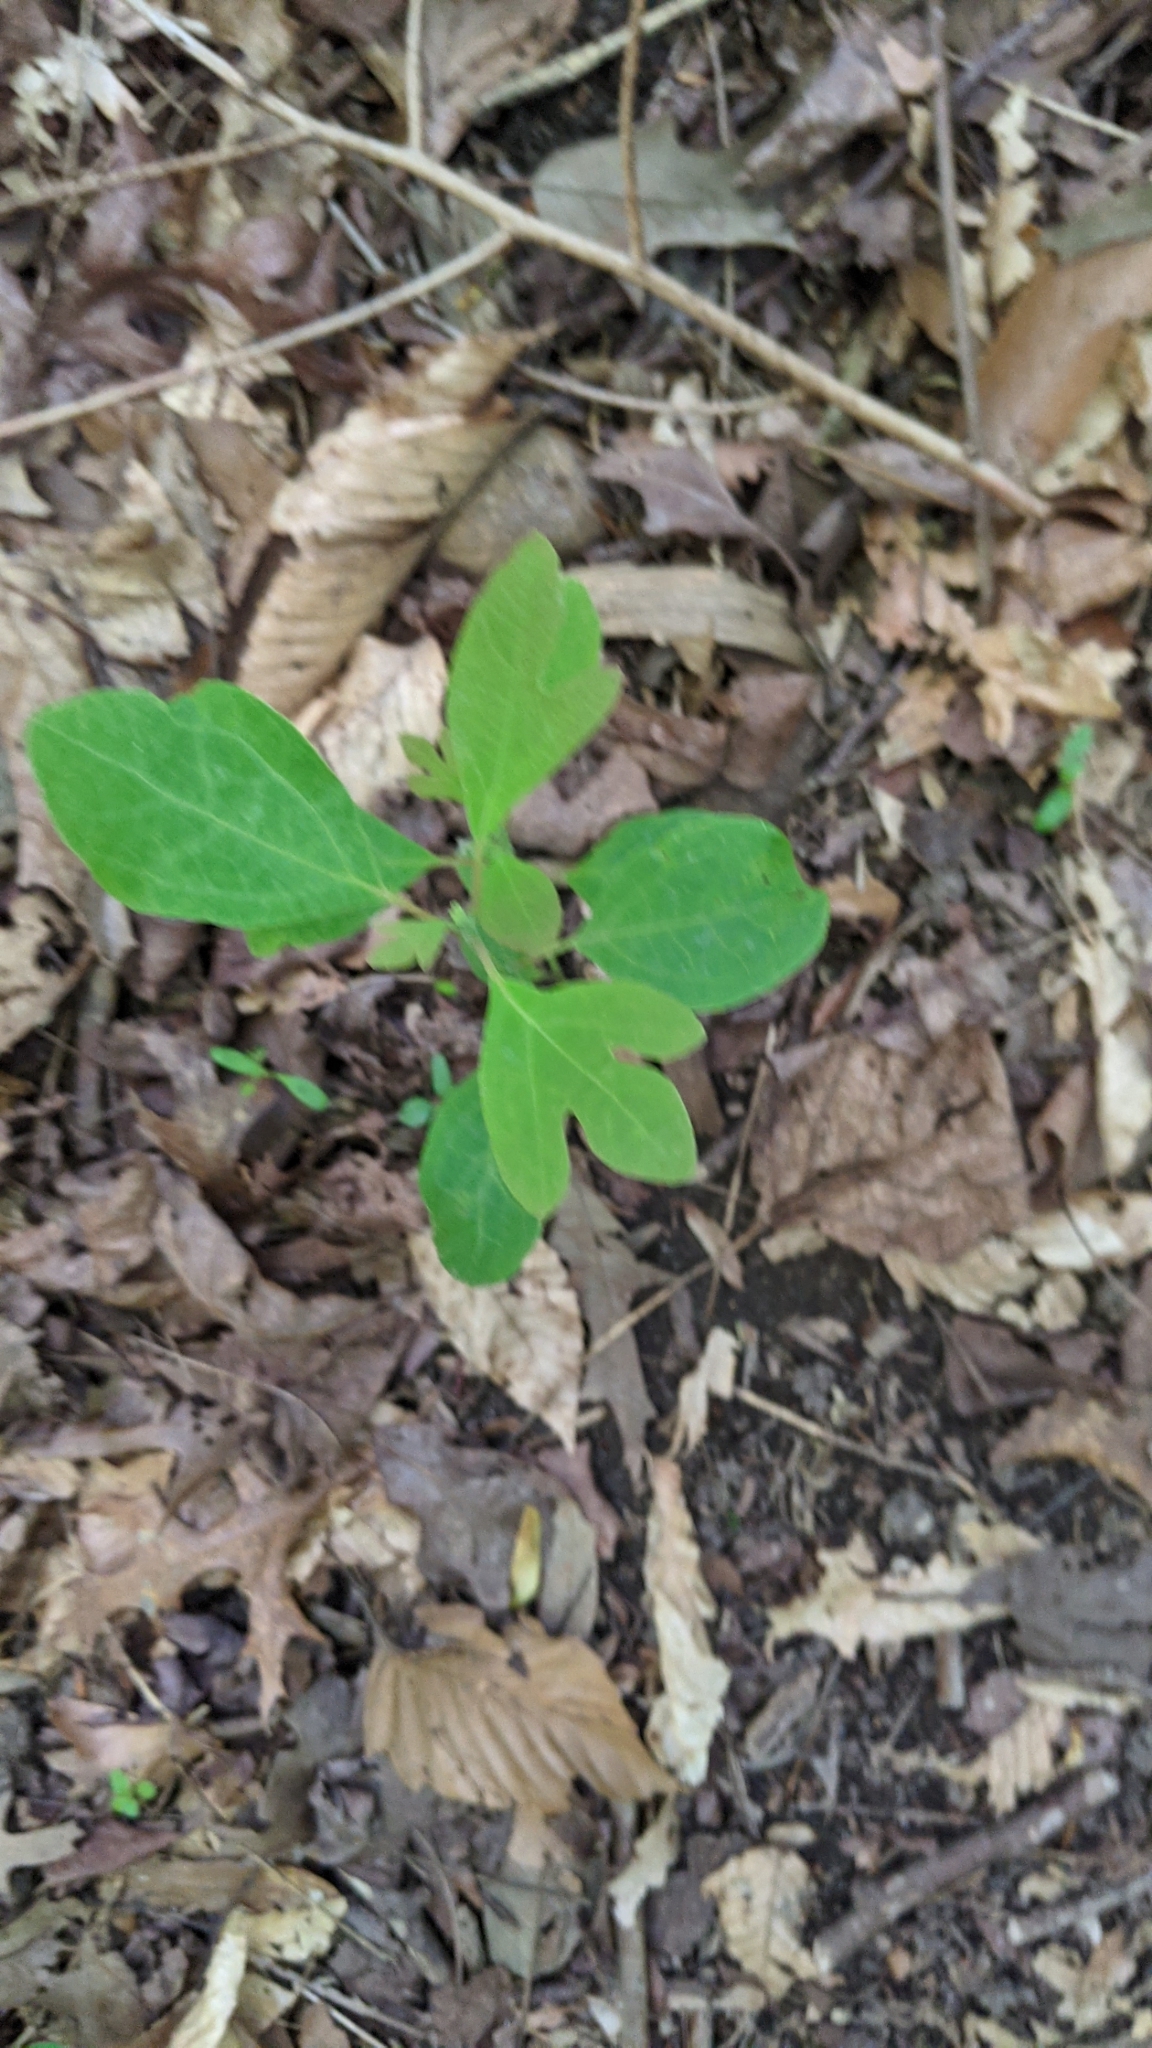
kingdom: Plantae
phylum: Tracheophyta
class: Magnoliopsida
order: Laurales
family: Lauraceae
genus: Sassafras
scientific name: Sassafras albidum
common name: Sassafras
